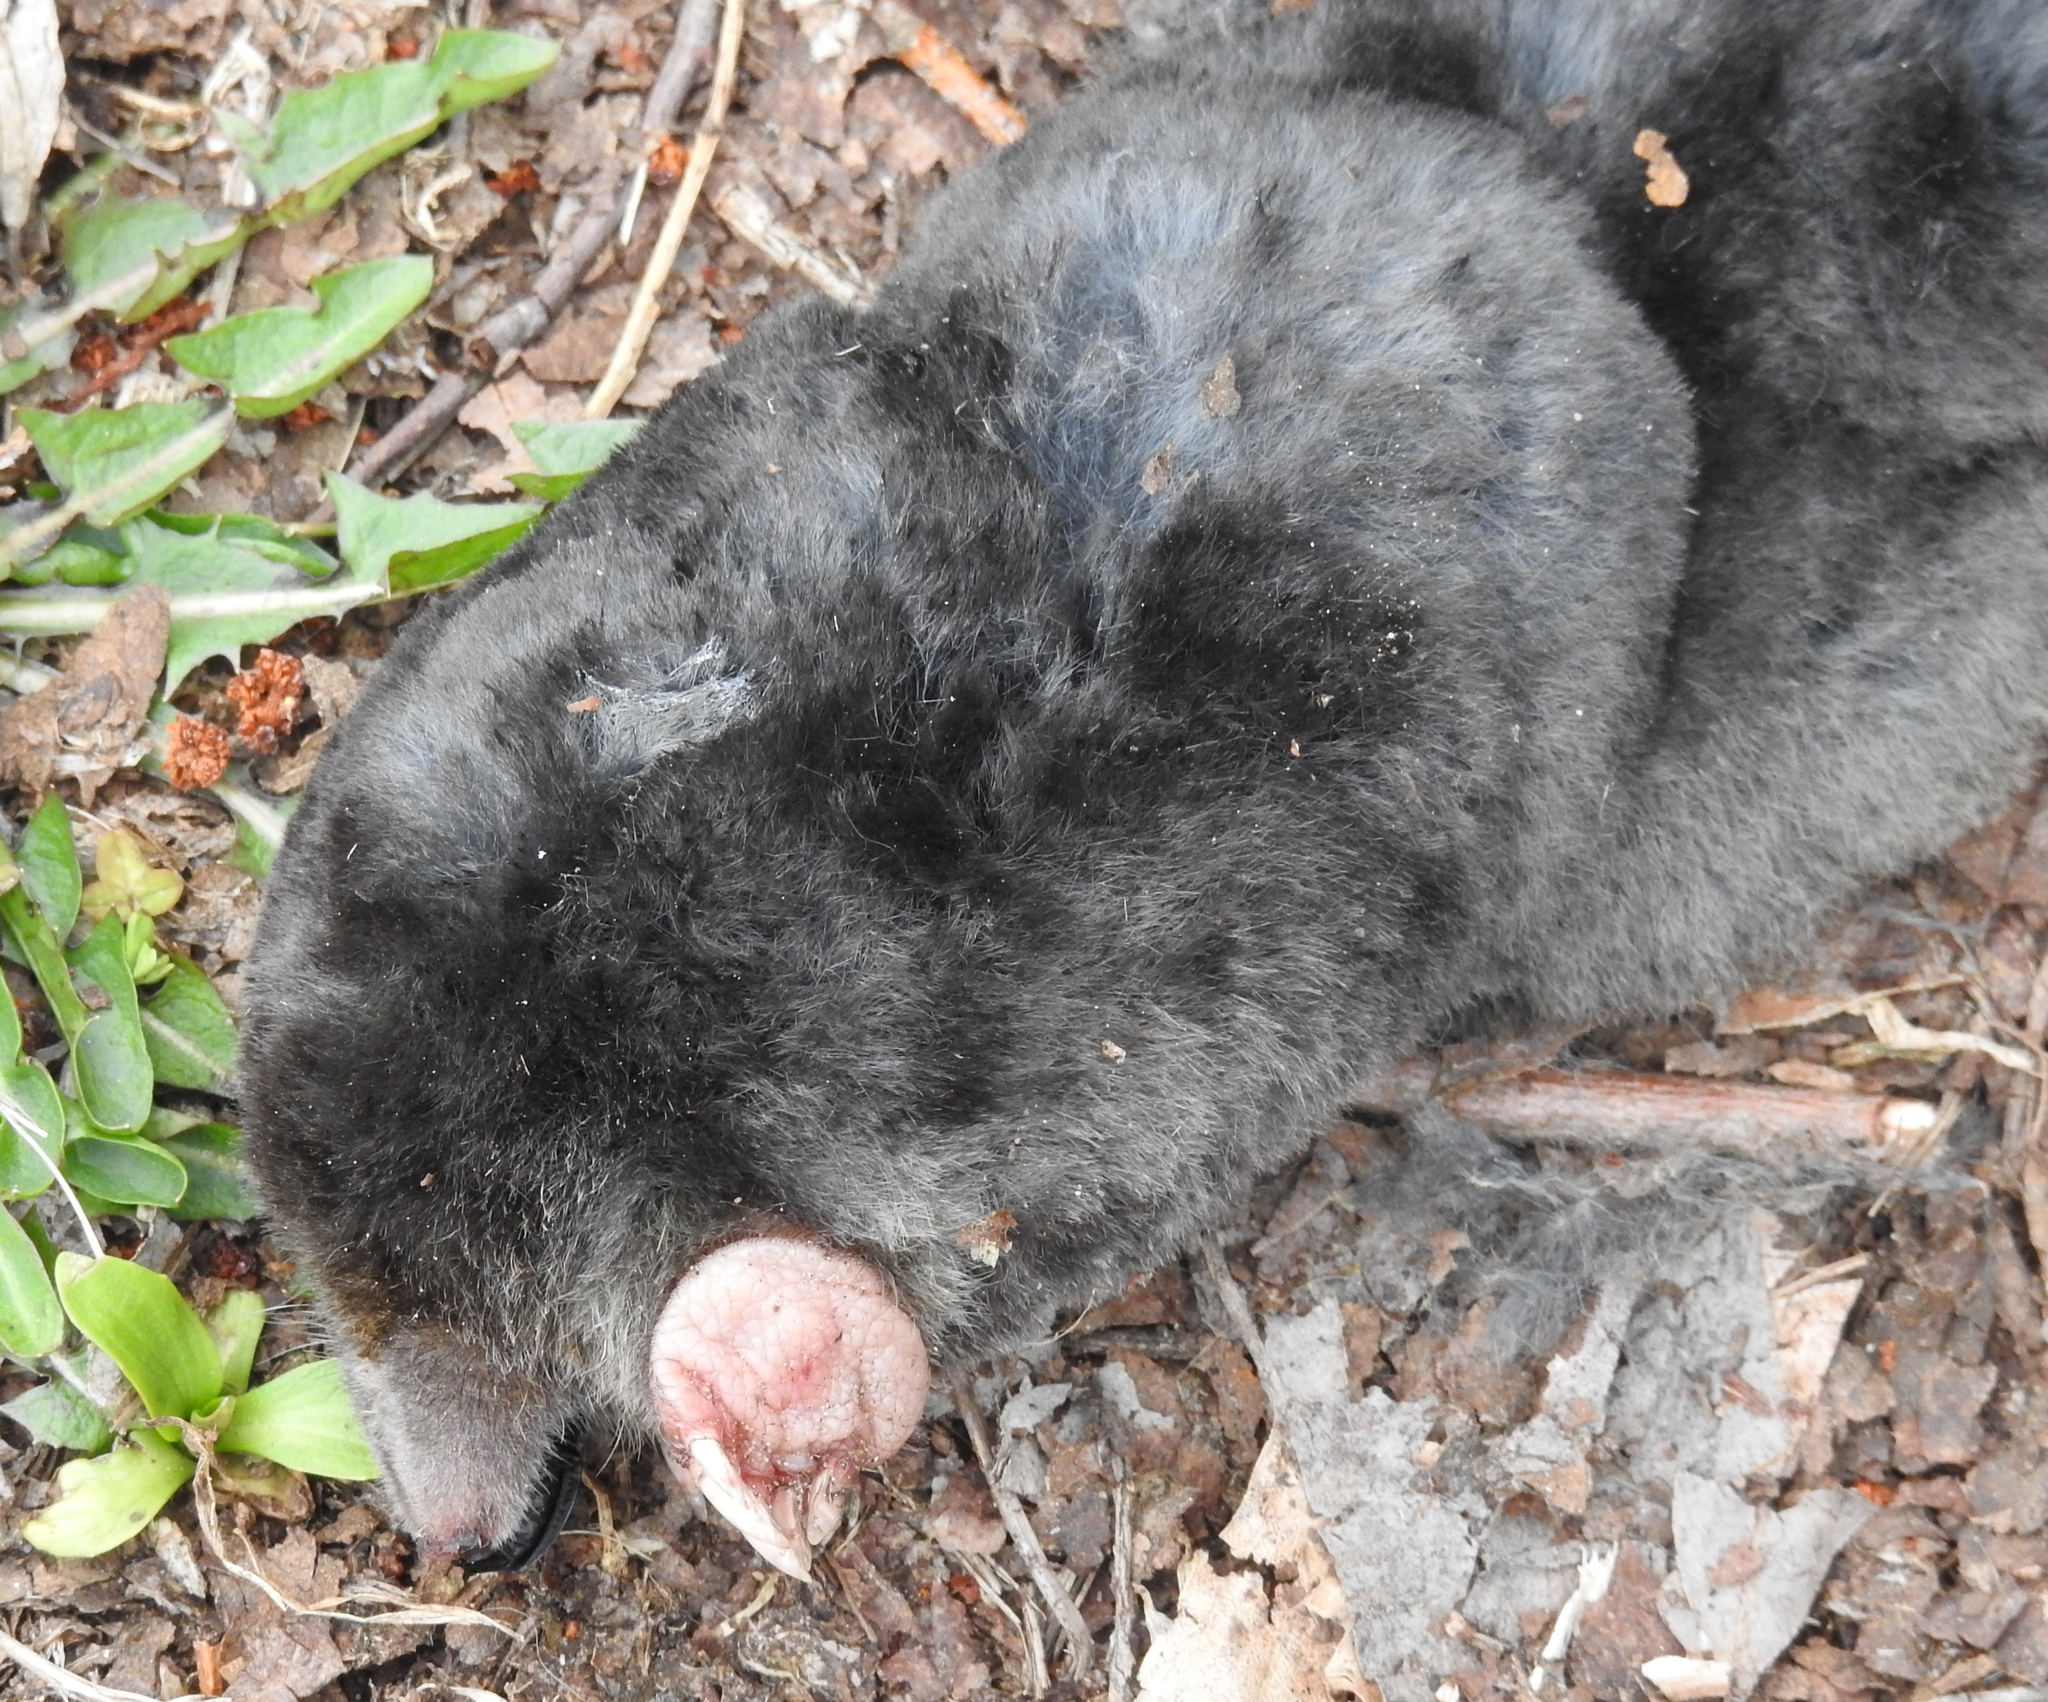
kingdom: Animalia
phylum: Chordata
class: Mammalia
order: Soricomorpha
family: Talpidae
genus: Talpa
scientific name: Talpa europaea
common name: European mole
